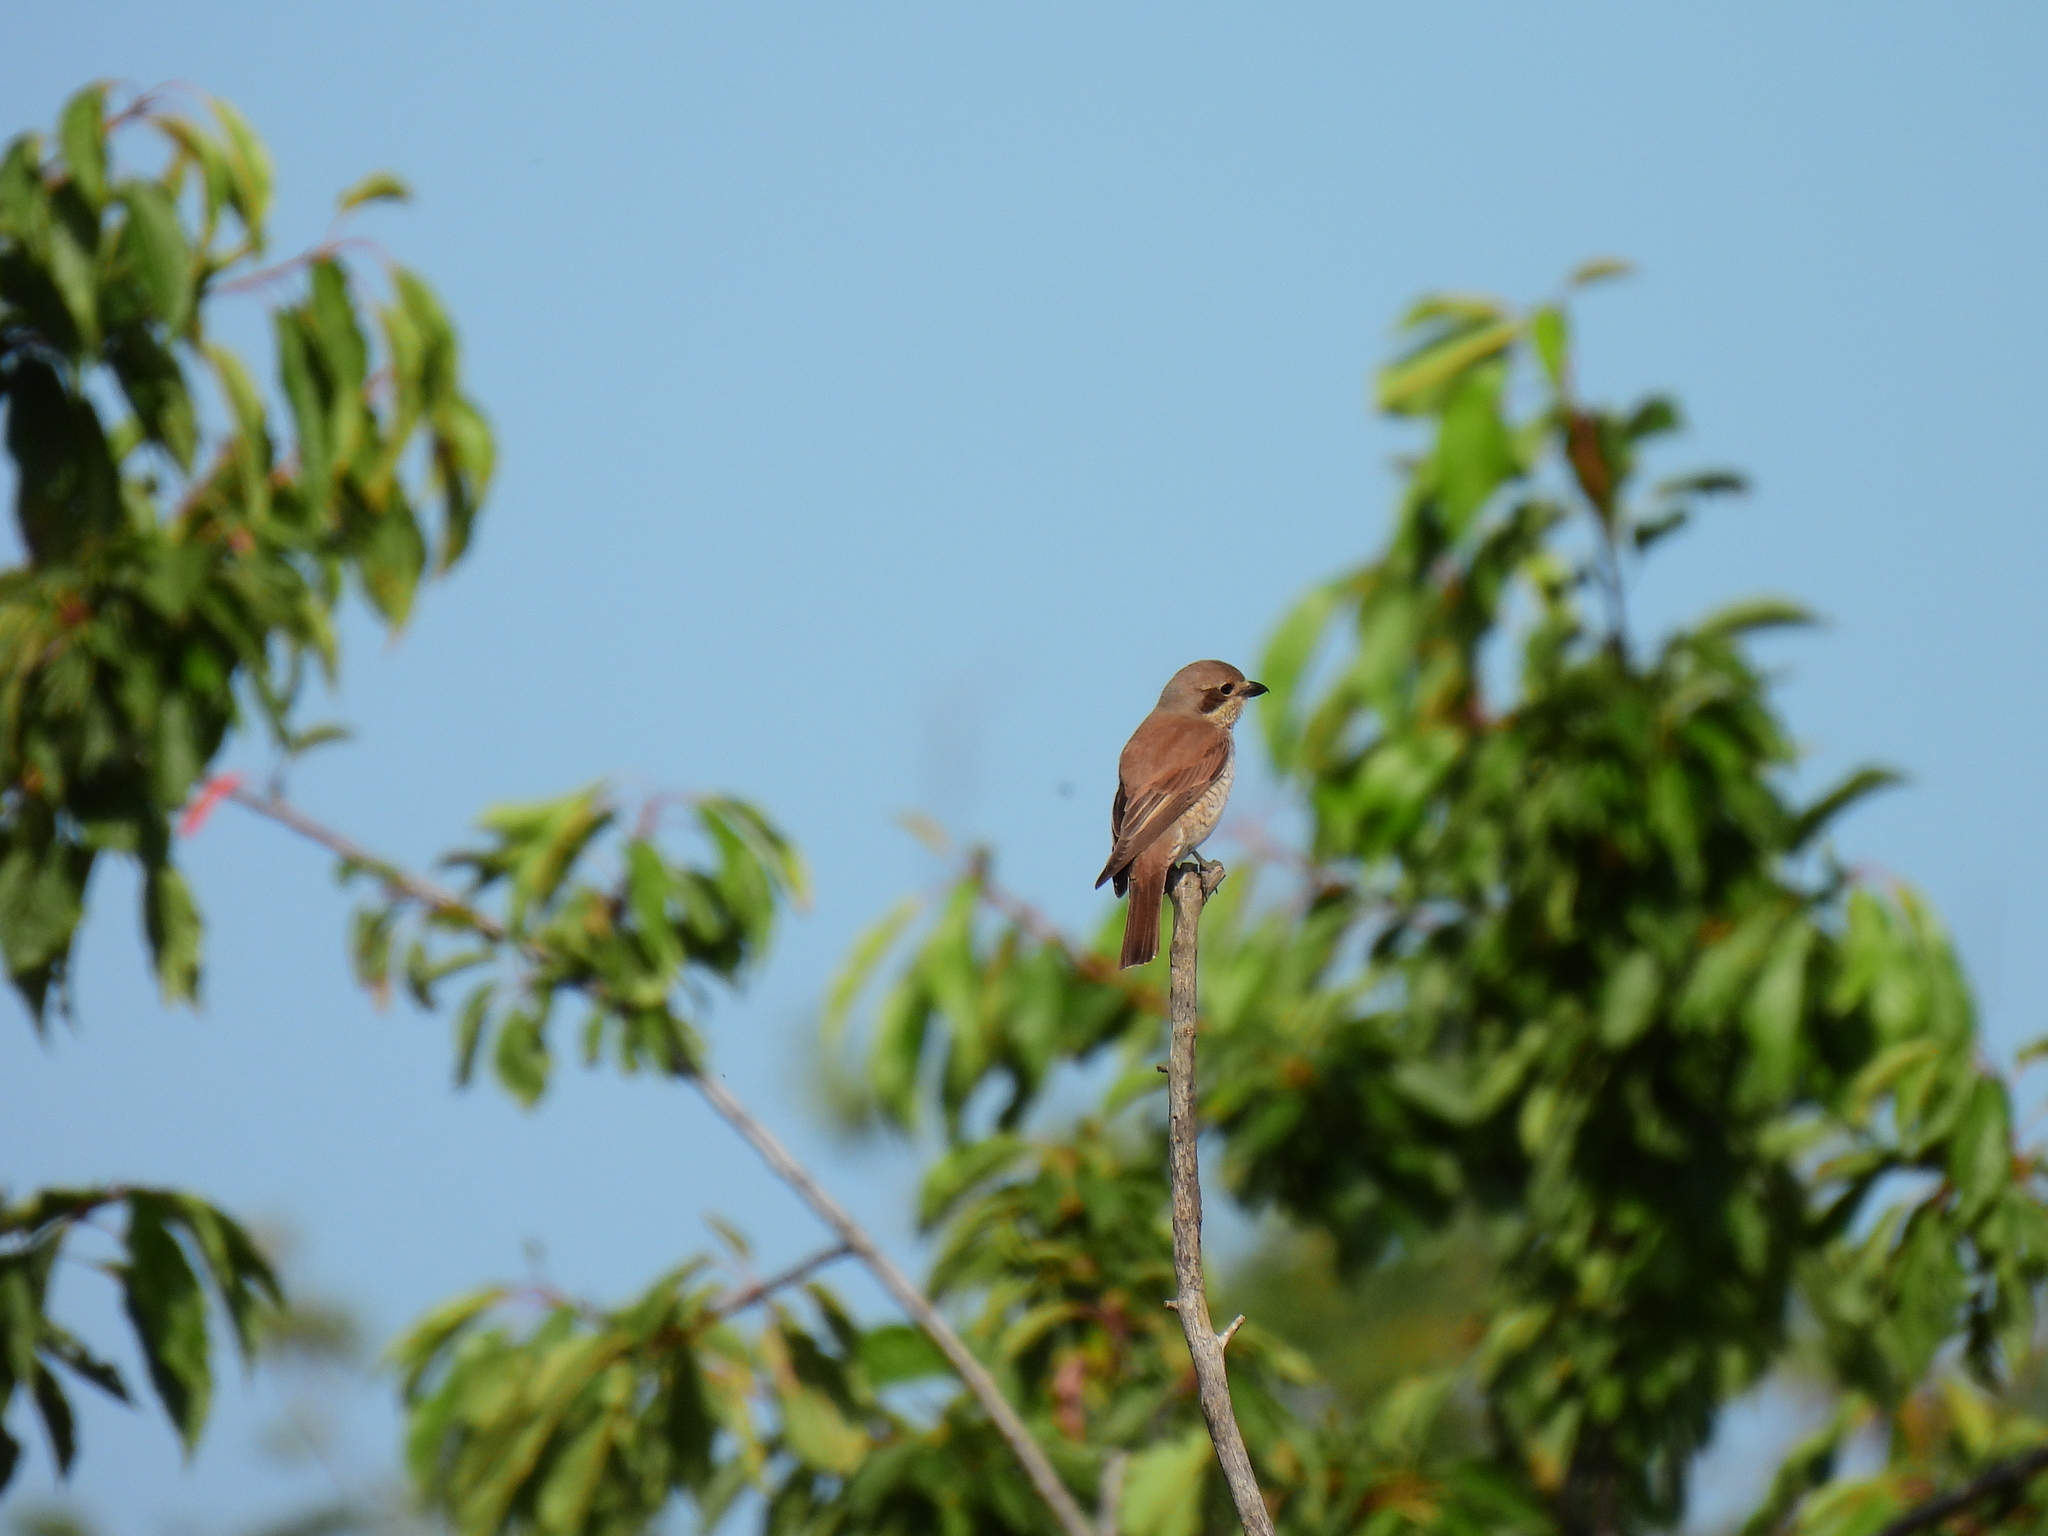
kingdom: Animalia
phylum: Chordata
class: Aves
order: Passeriformes
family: Laniidae
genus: Lanius
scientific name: Lanius collurio
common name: Red-backed shrike
